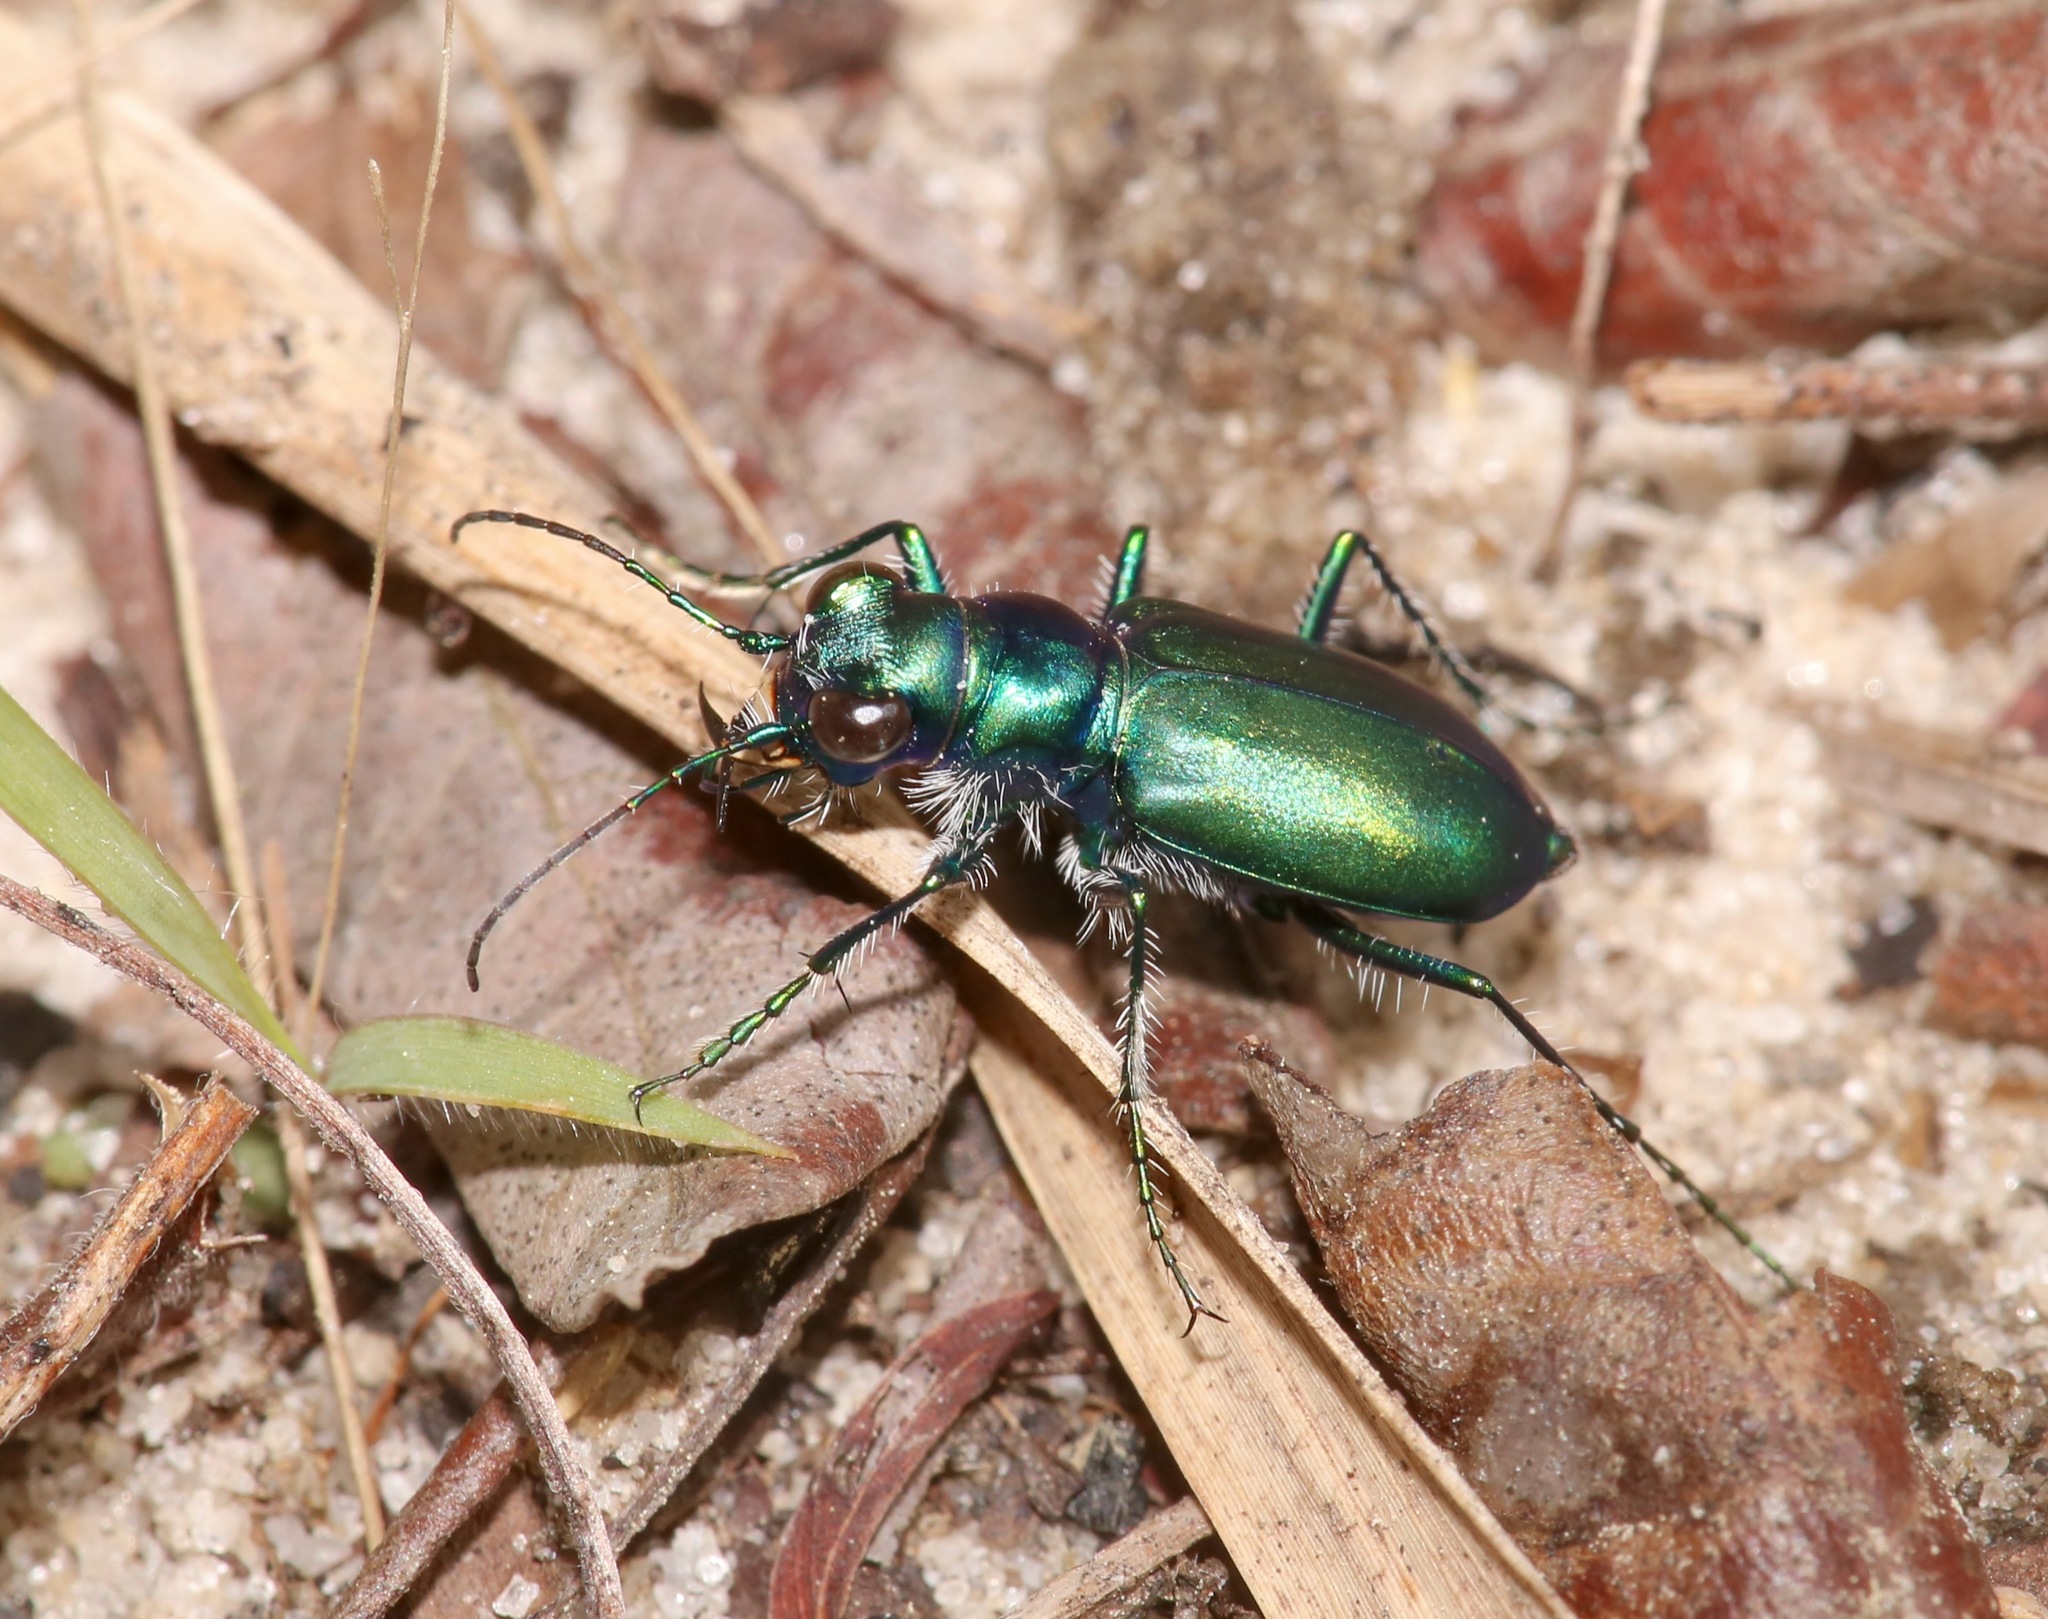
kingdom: Animalia
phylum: Arthropoda
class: Insecta
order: Coleoptera
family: Carabidae
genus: Cicindela
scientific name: Cicindela scutellaris
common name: Festive tiger beetle
